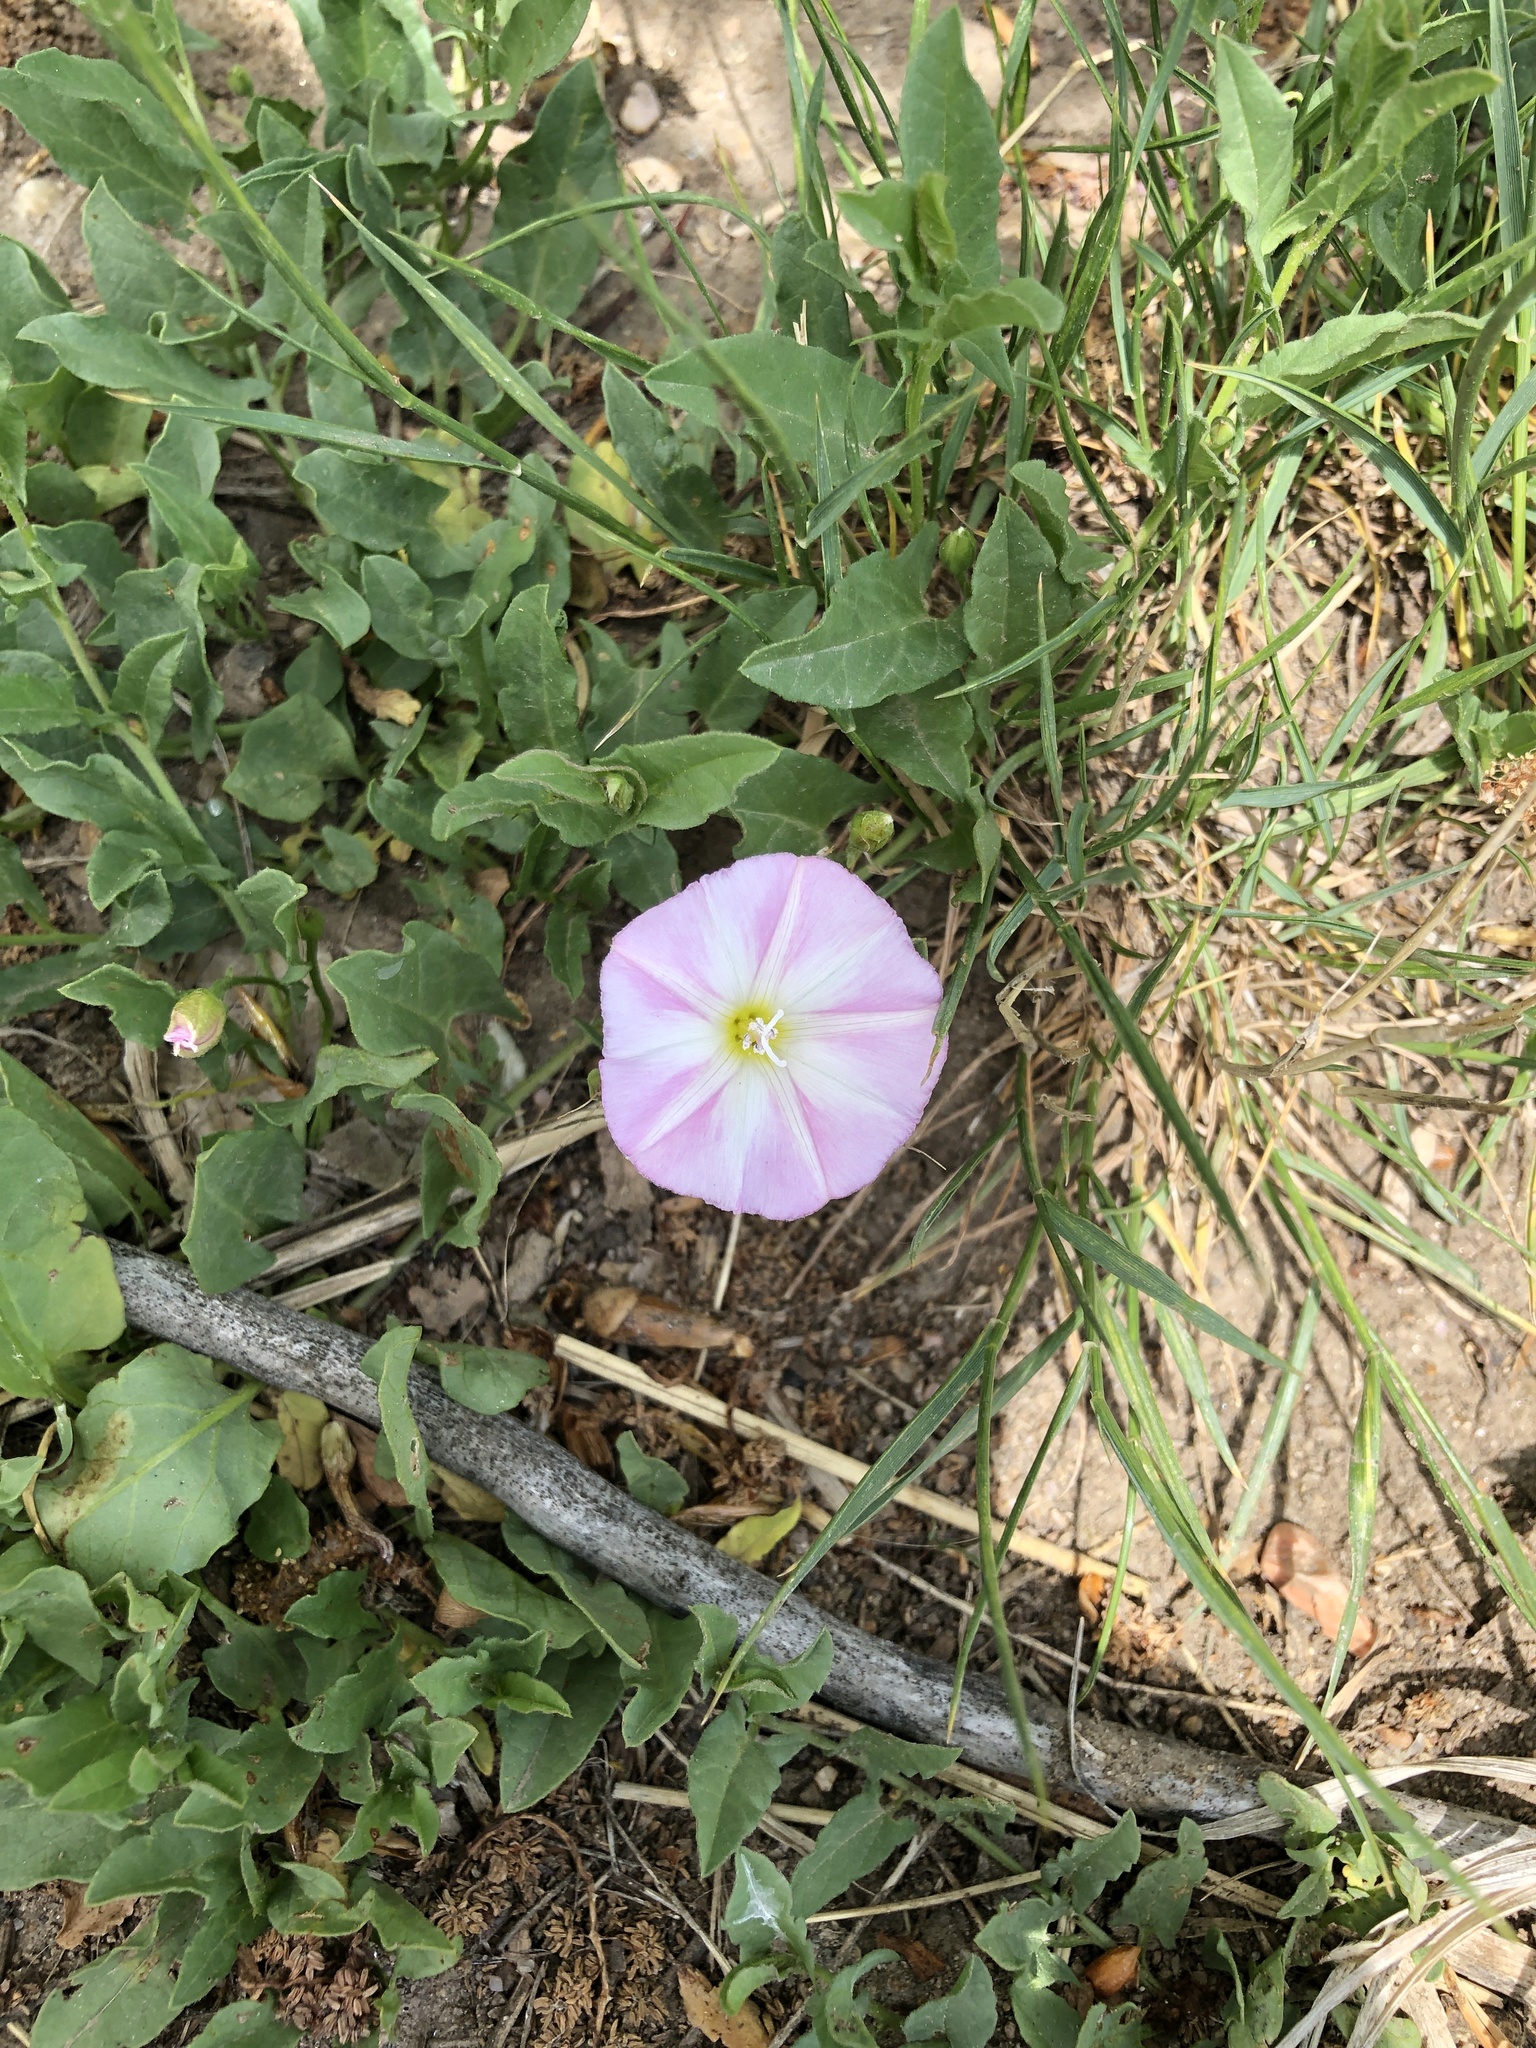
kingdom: Plantae
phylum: Tracheophyta
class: Magnoliopsida
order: Solanales
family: Convolvulaceae
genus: Convolvulus
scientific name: Convolvulus arvensis
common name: Field bindweed
